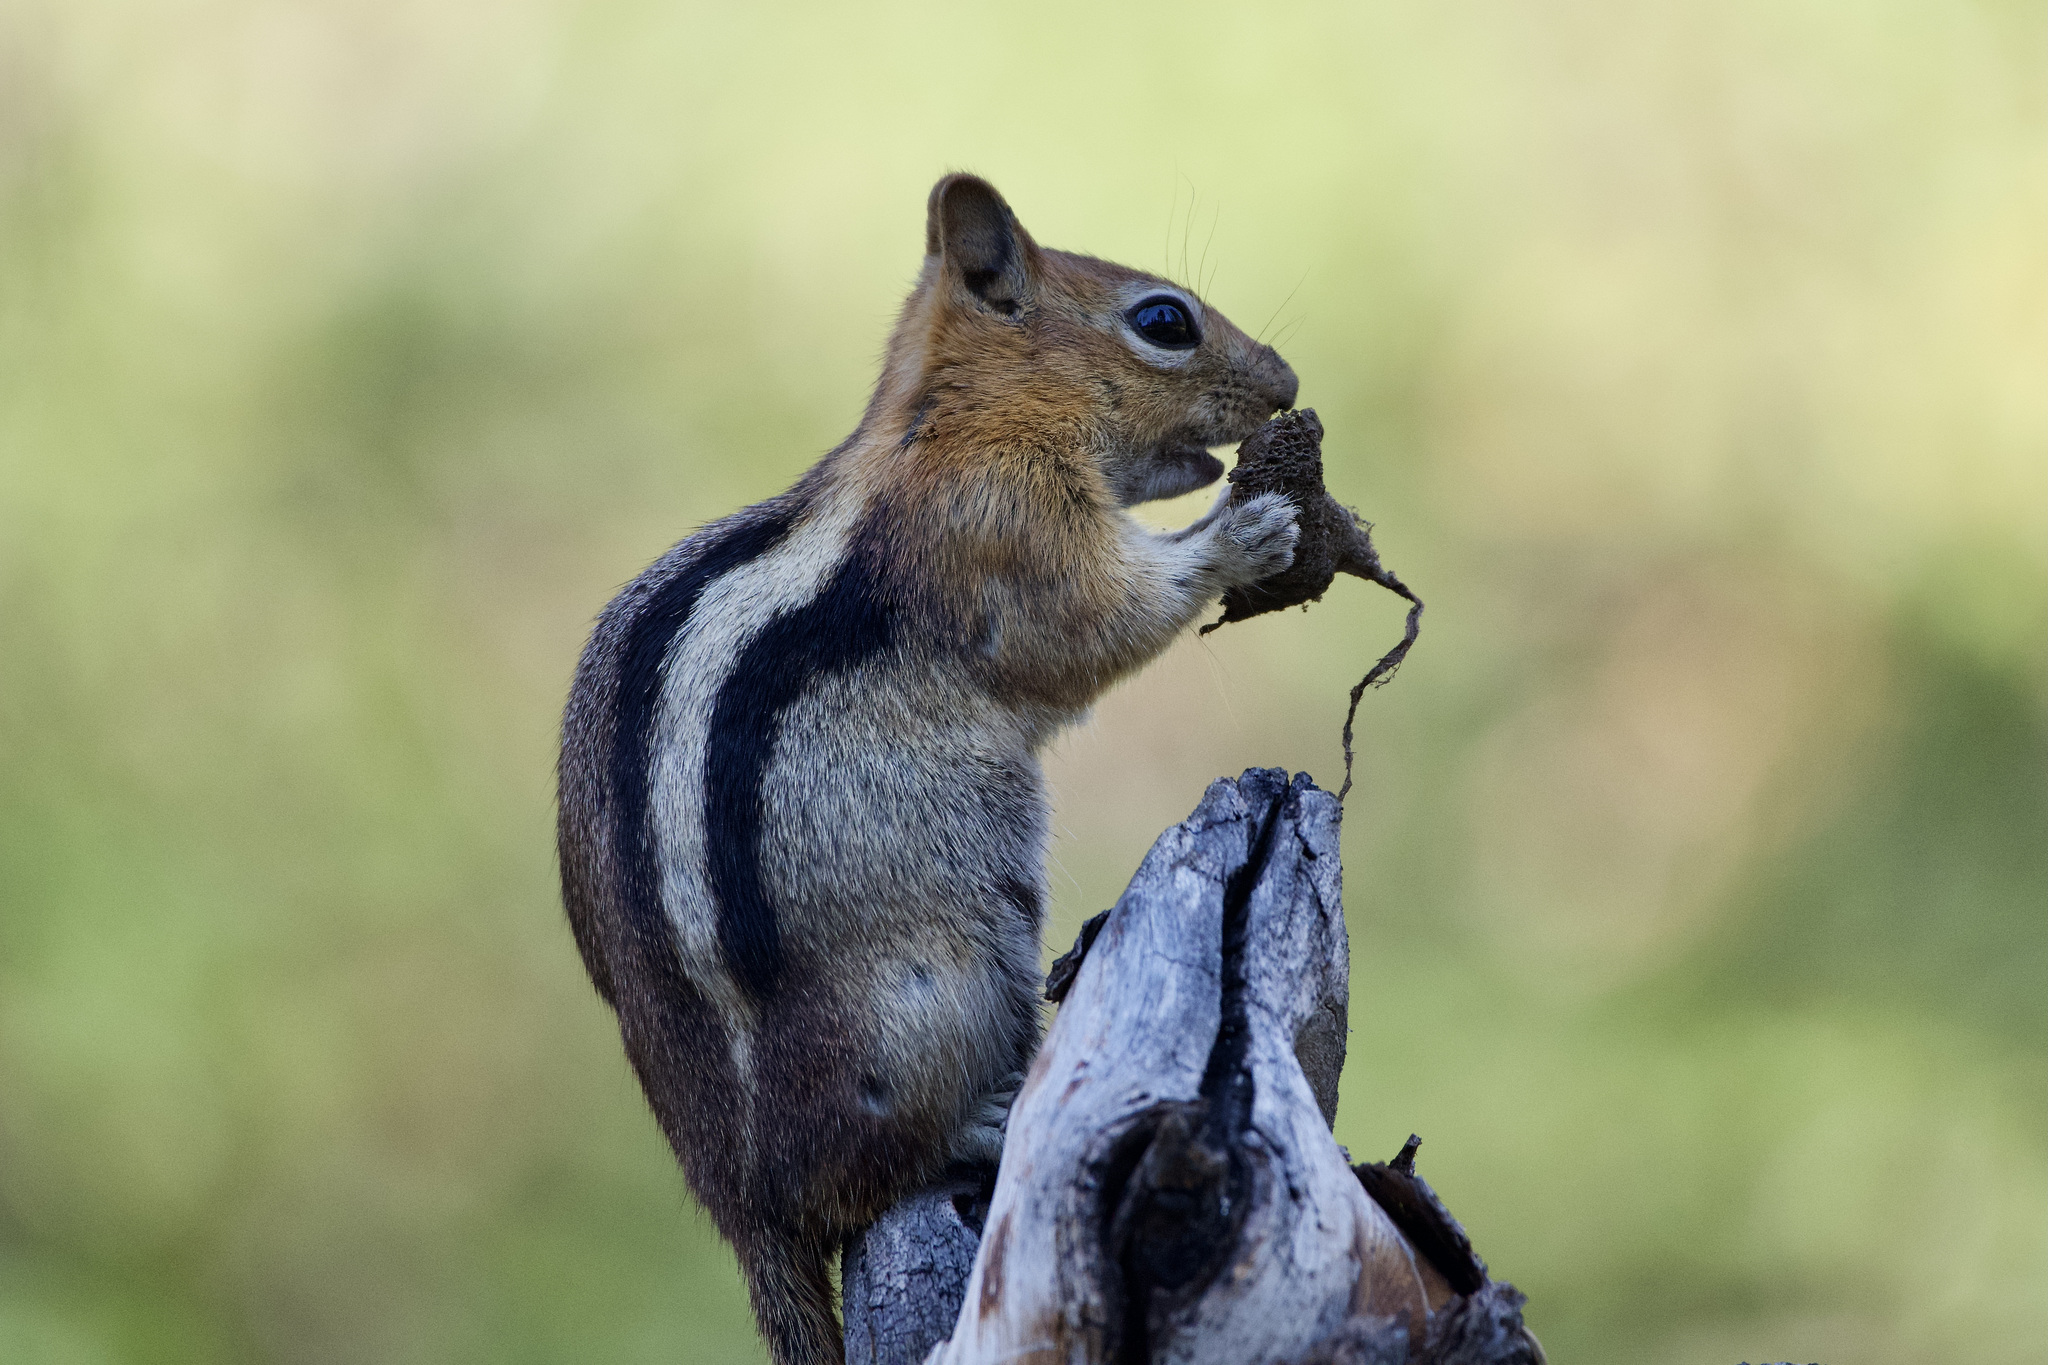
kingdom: Animalia
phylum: Chordata
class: Mammalia
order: Rodentia
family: Sciuridae
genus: Callospermophilus
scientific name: Callospermophilus lateralis
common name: Golden-mantled ground squirrel
